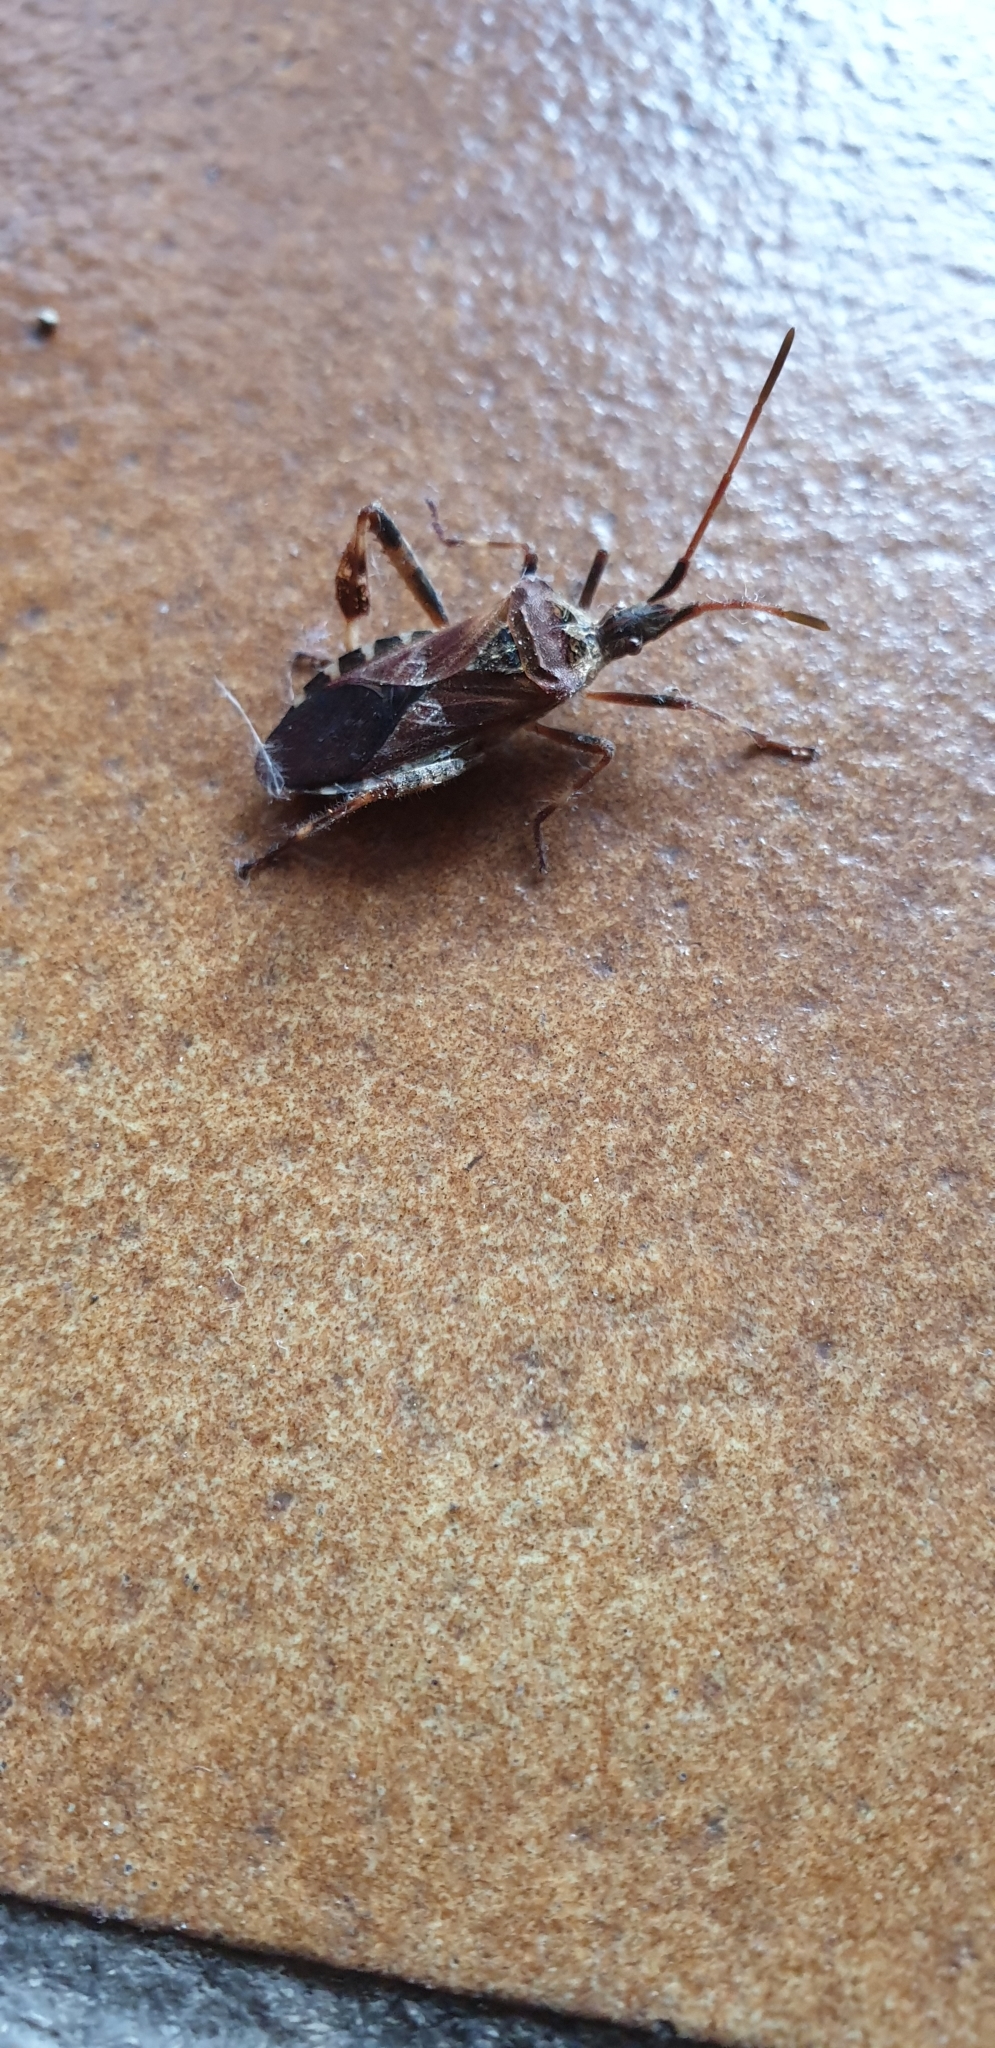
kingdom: Animalia
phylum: Arthropoda
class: Insecta
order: Hemiptera
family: Coreidae
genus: Leptoglossus
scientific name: Leptoglossus occidentalis
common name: Western conifer-seed bug
